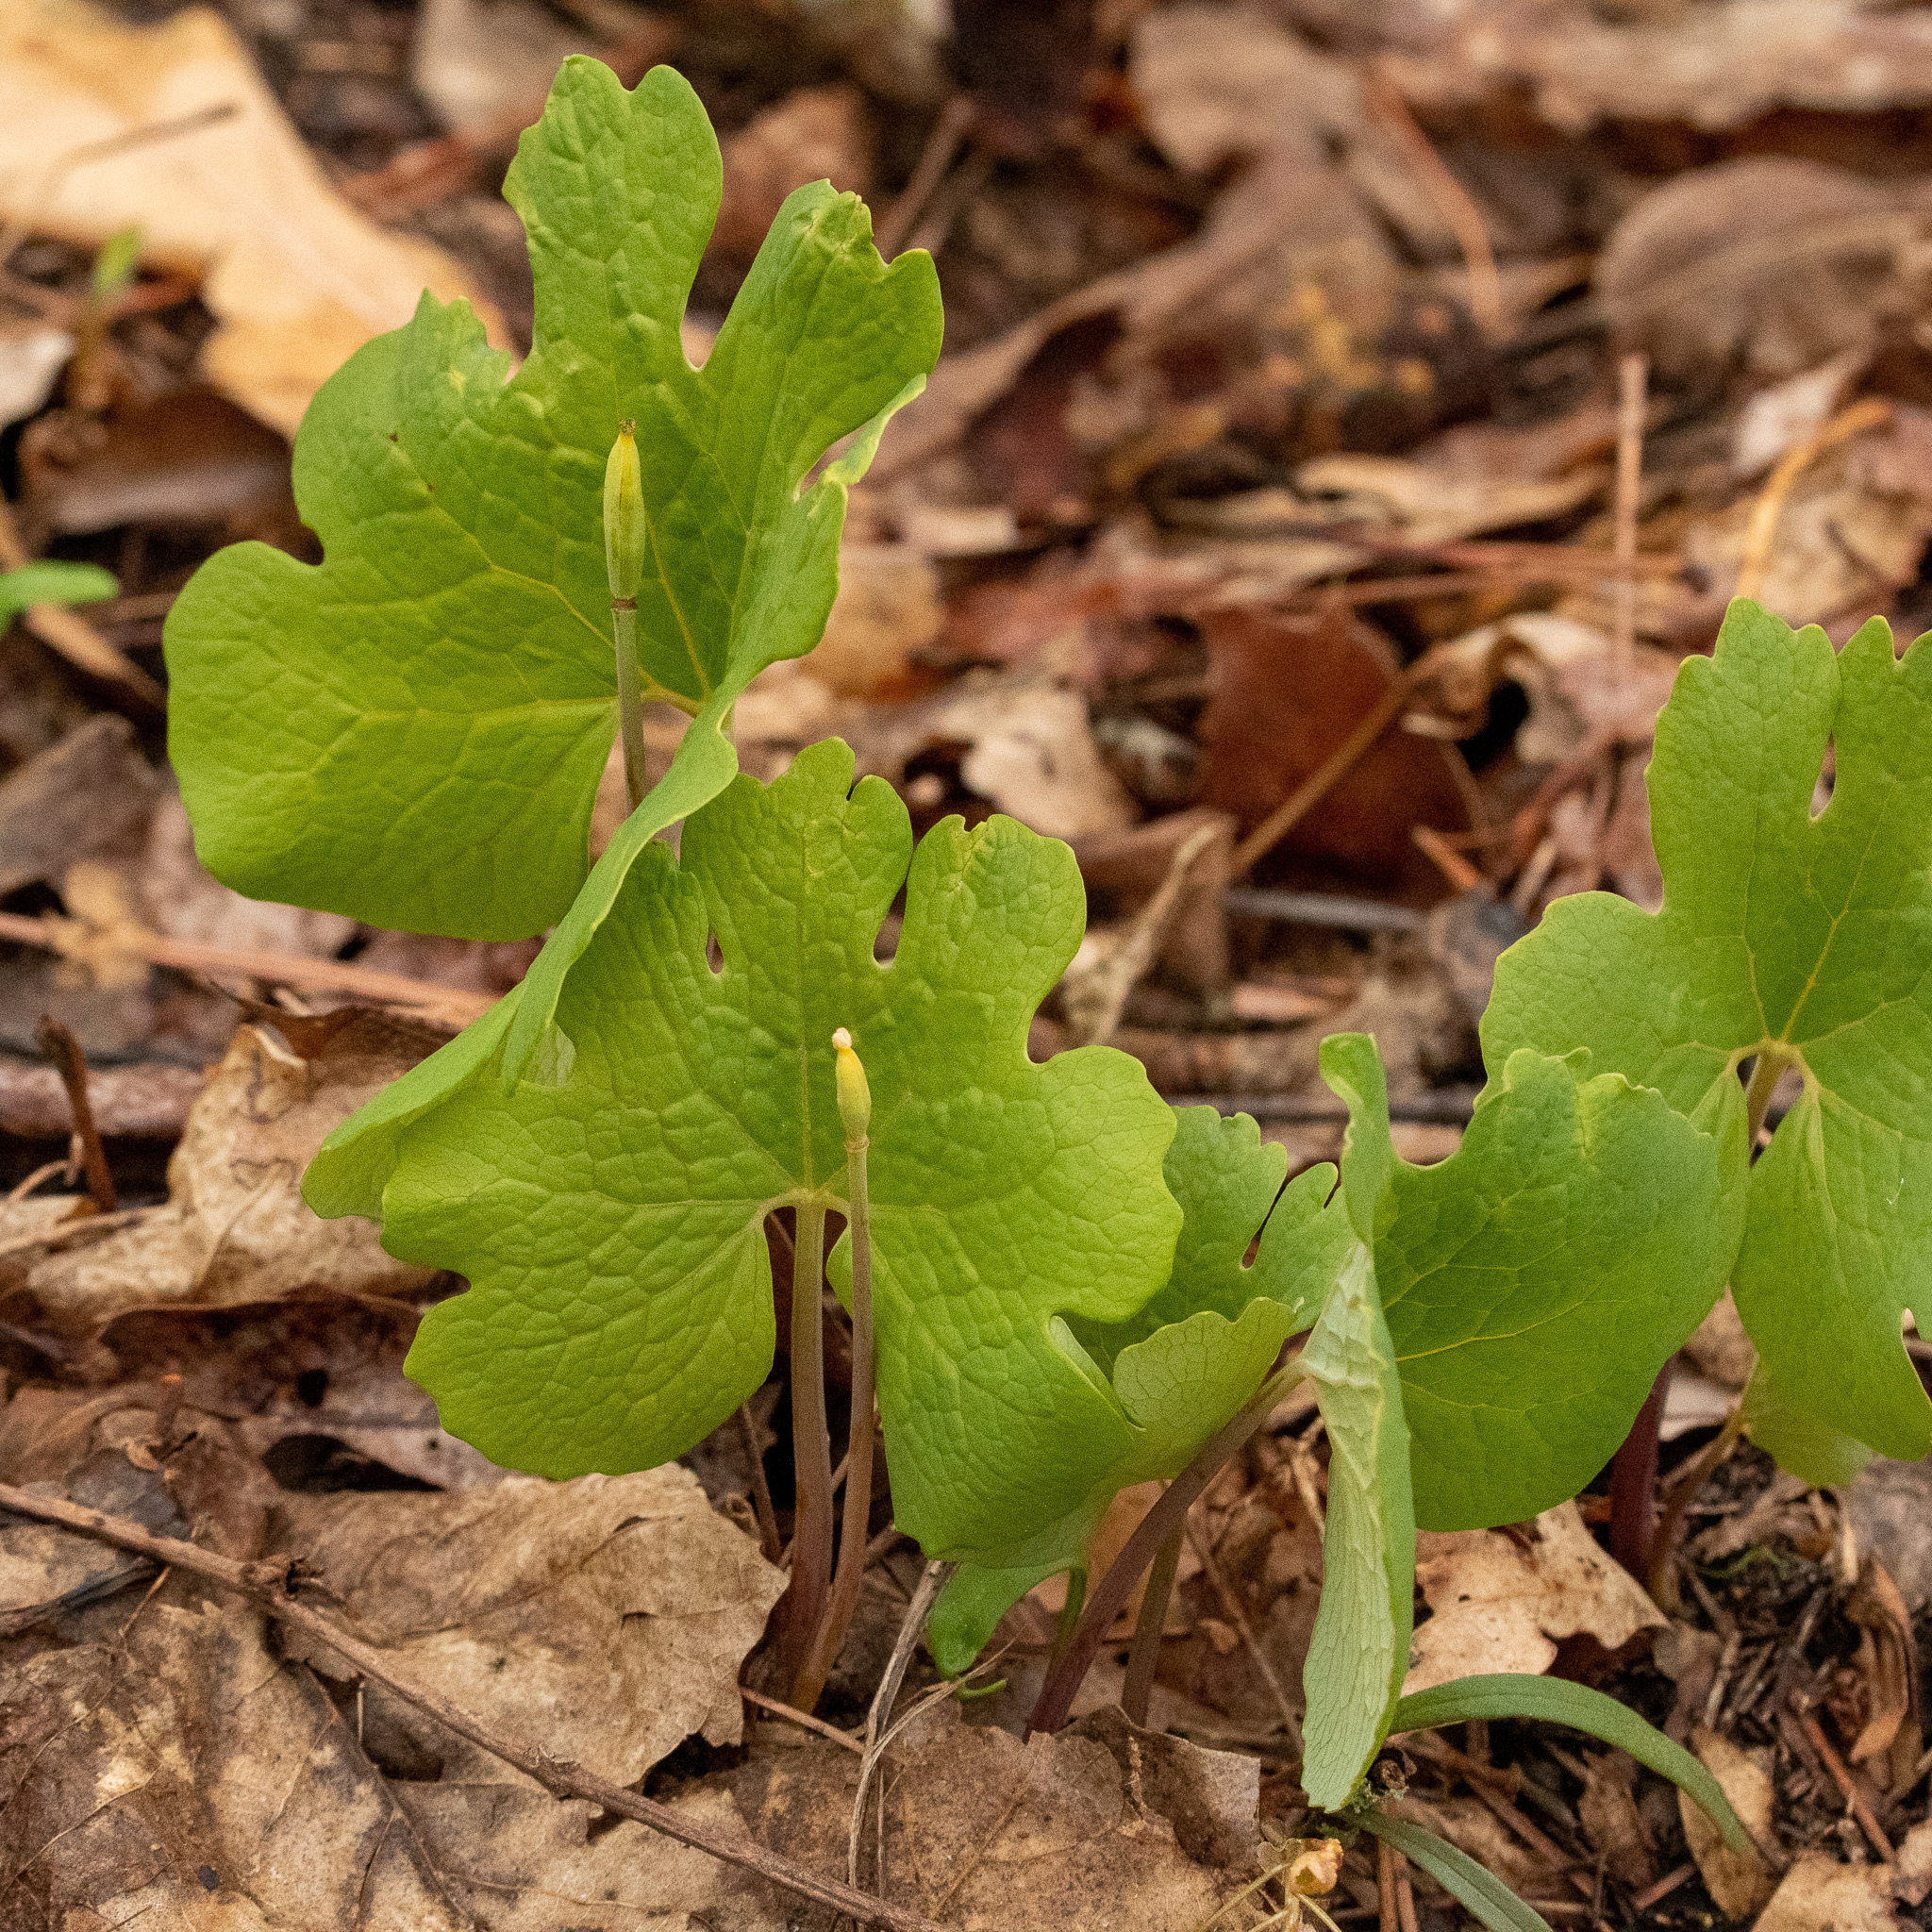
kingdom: Plantae
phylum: Tracheophyta
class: Magnoliopsida
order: Ranunculales
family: Papaveraceae
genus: Sanguinaria
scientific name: Sanguinaria canadensis
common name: Bloodroot
